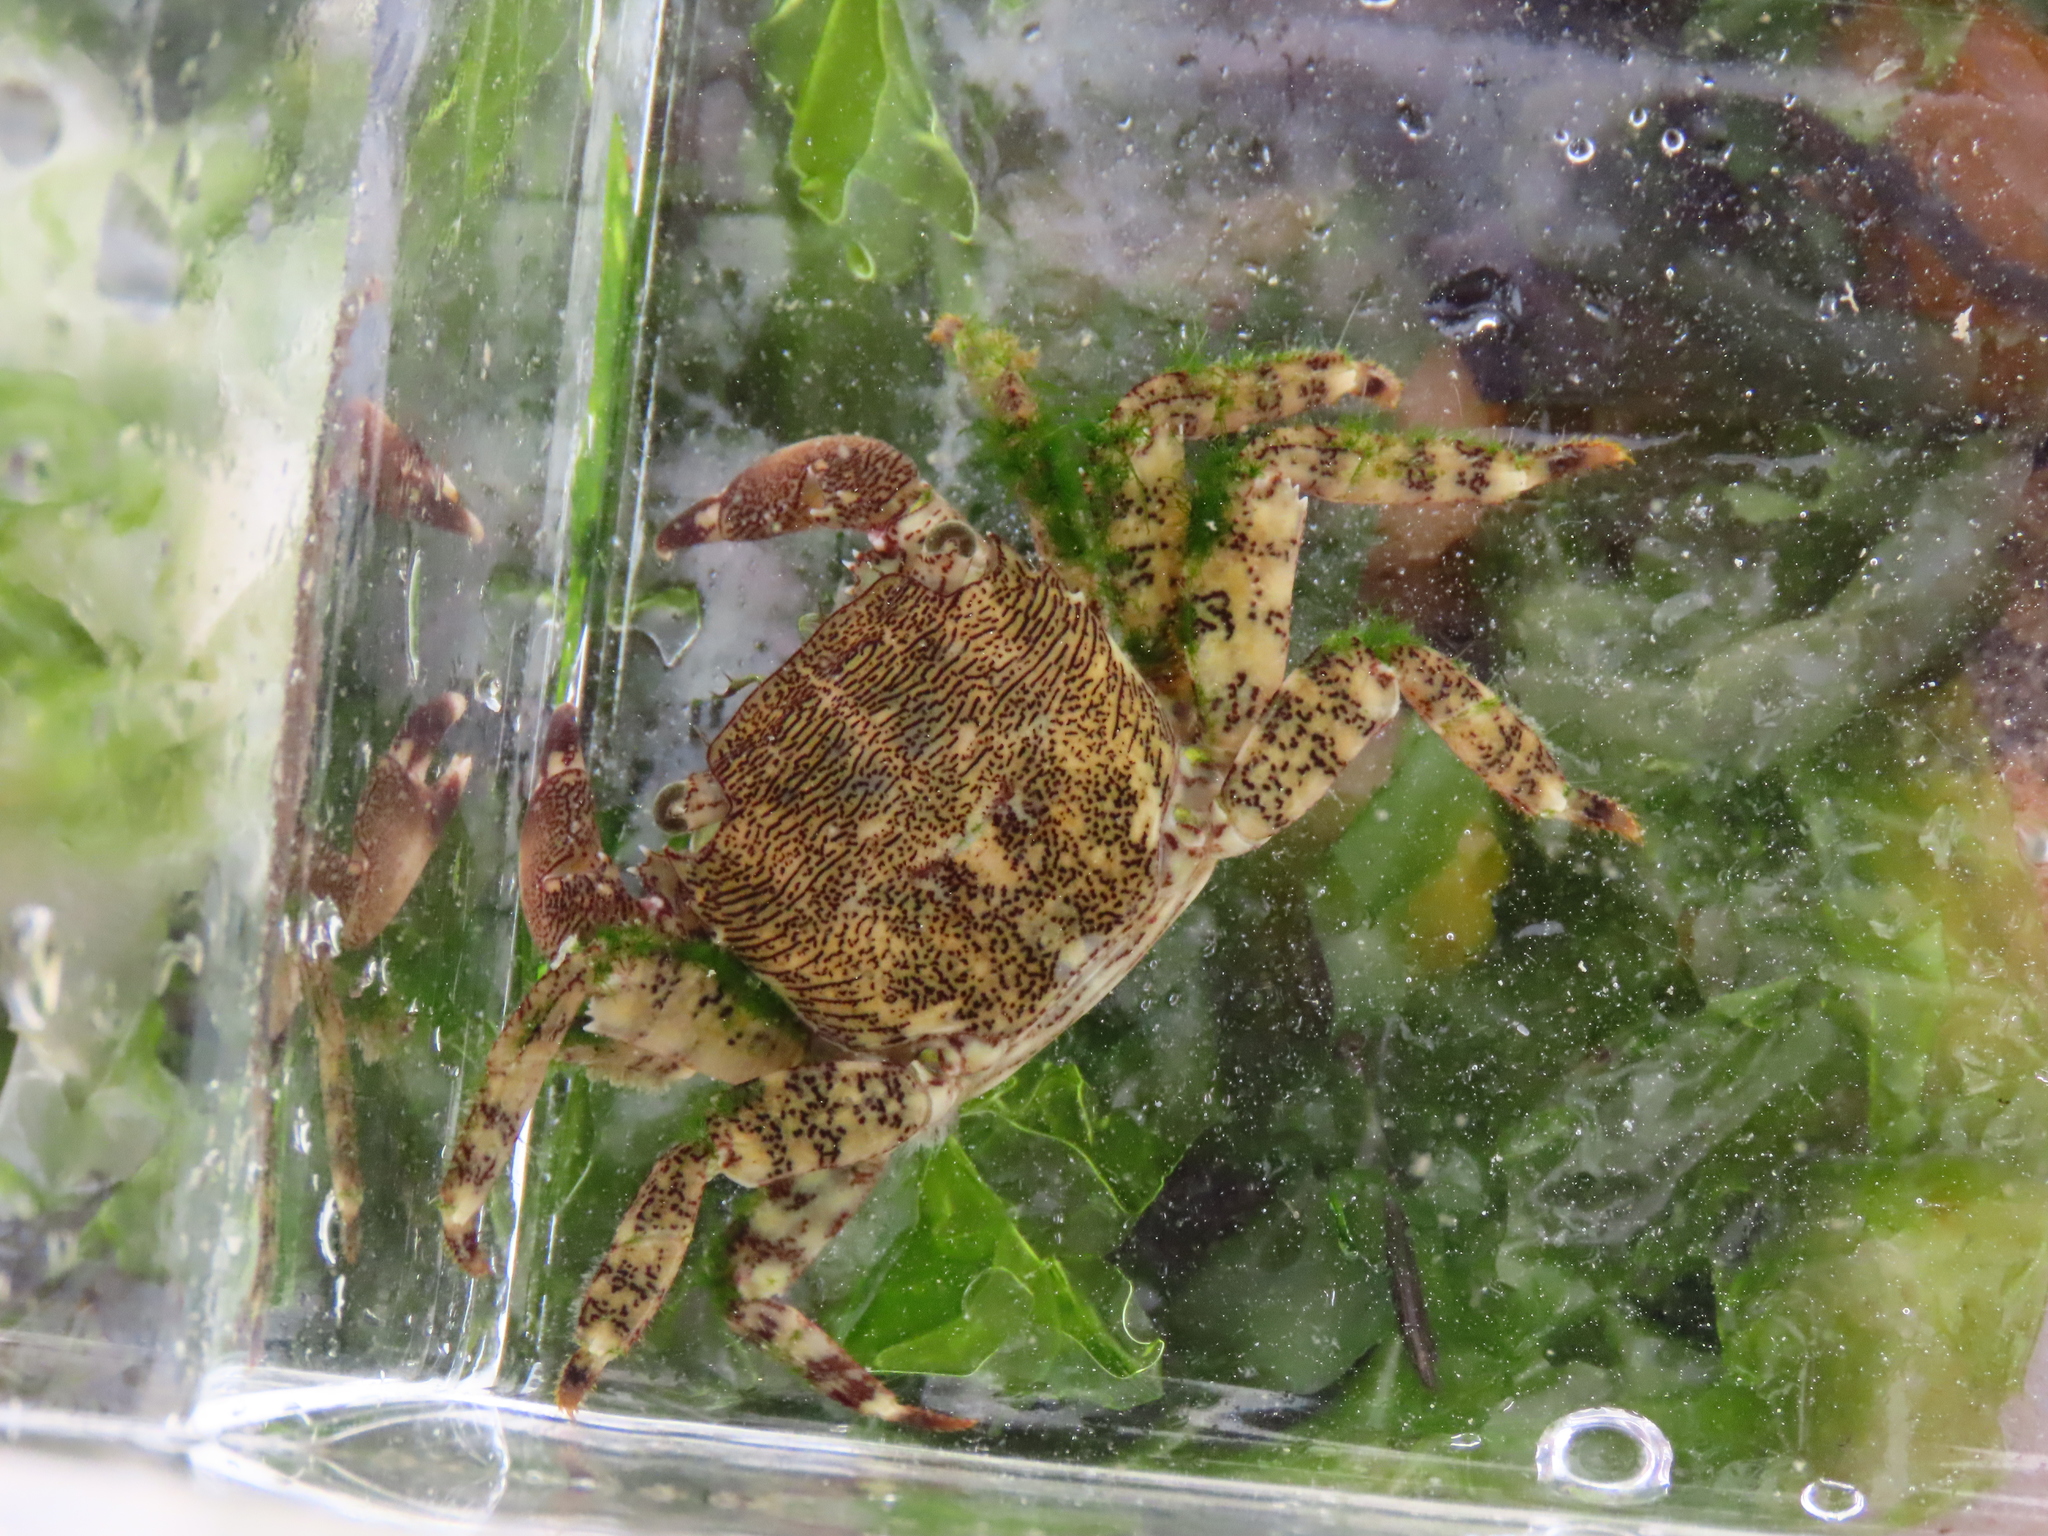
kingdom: Animalia
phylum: Arthropoda
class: Malacostraca
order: Decapoda
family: Grapsidae
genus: Pachygrapsus
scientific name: Pachygrapsus marmoratus
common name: Marbled rock crab
